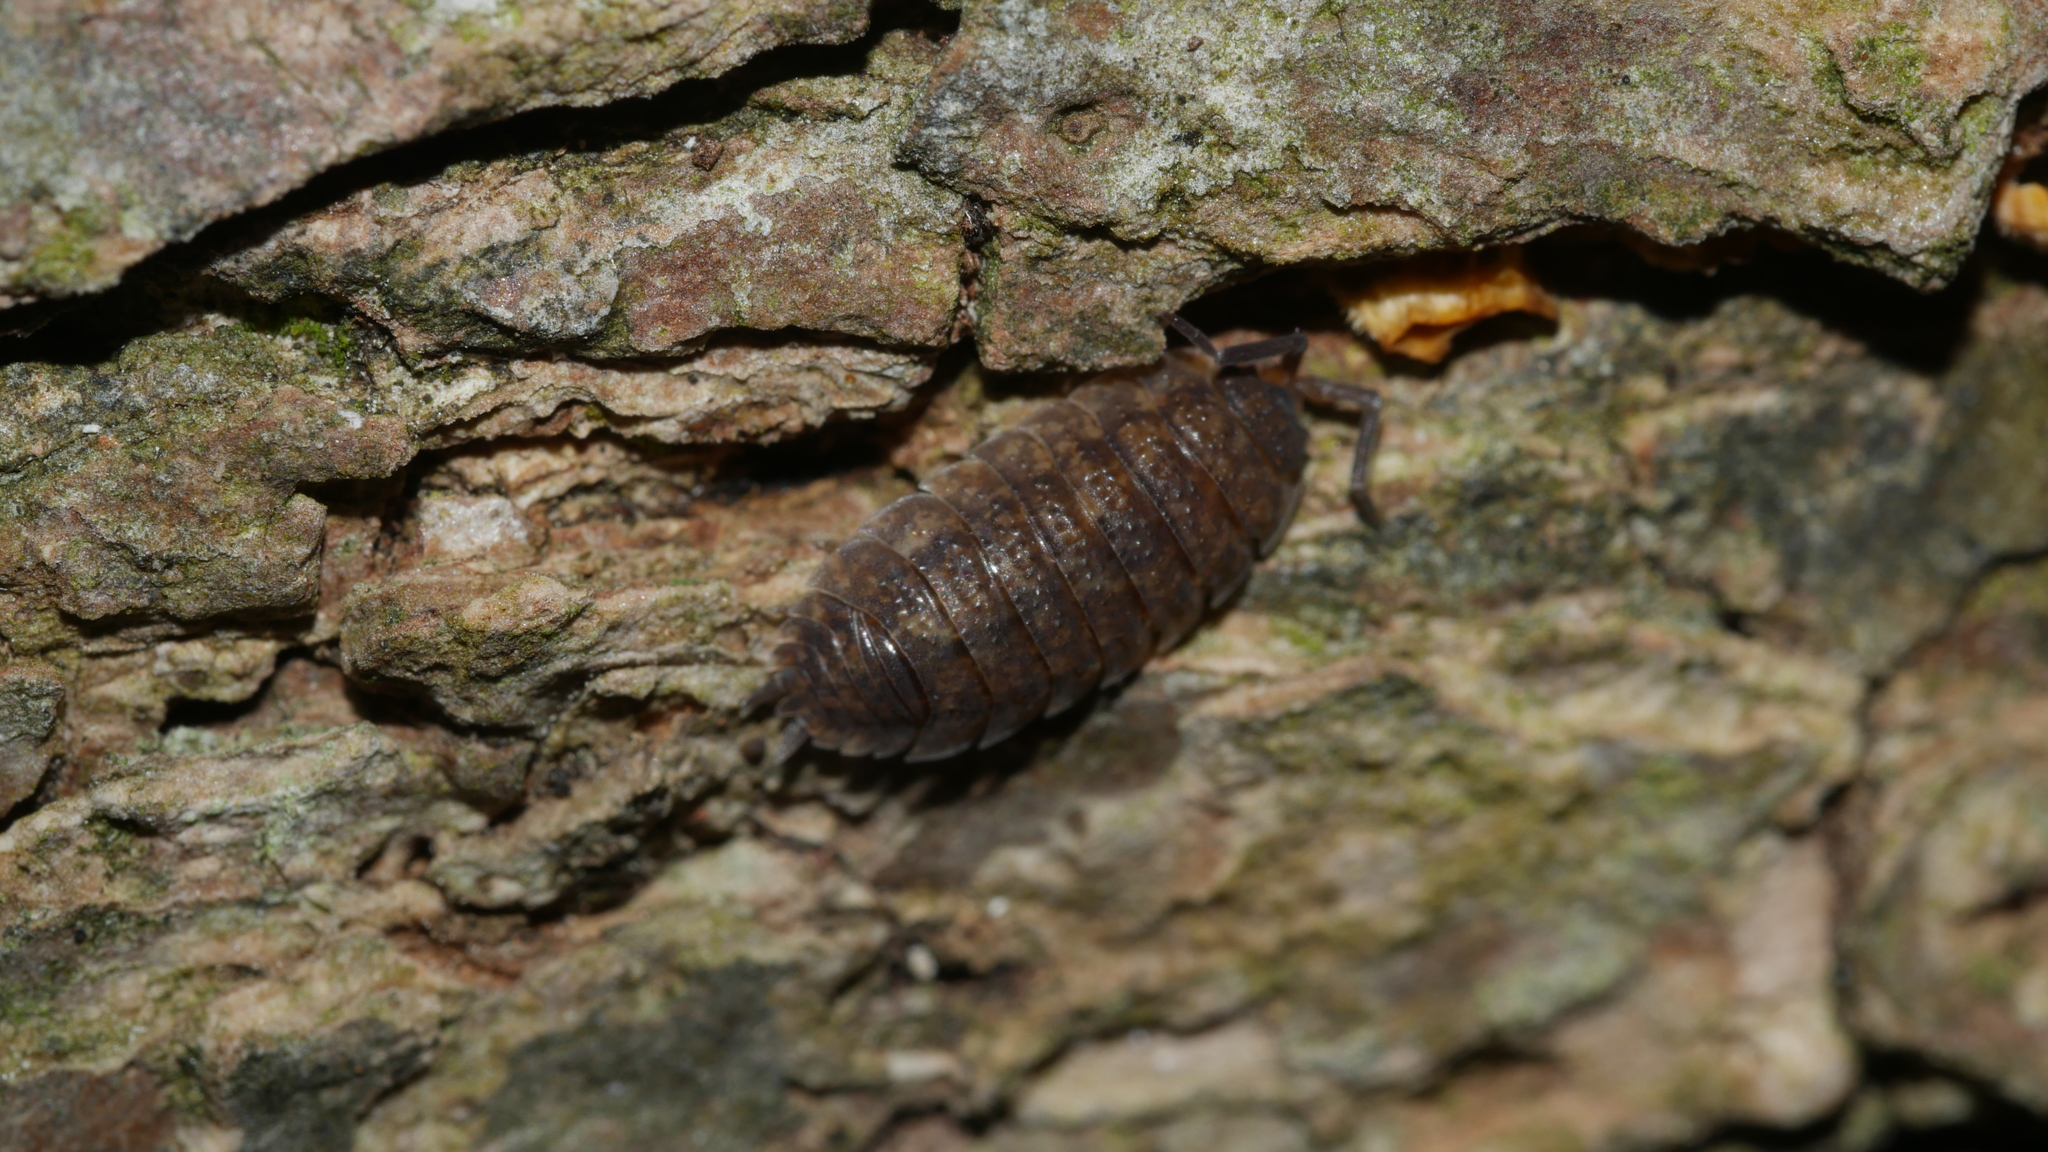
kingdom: Animalia
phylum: Arthropoda
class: Malacostraca
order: Isopoda
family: Porcellionidae
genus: Porcellio
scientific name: Porcellio scaber
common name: Common rough woodlouse
